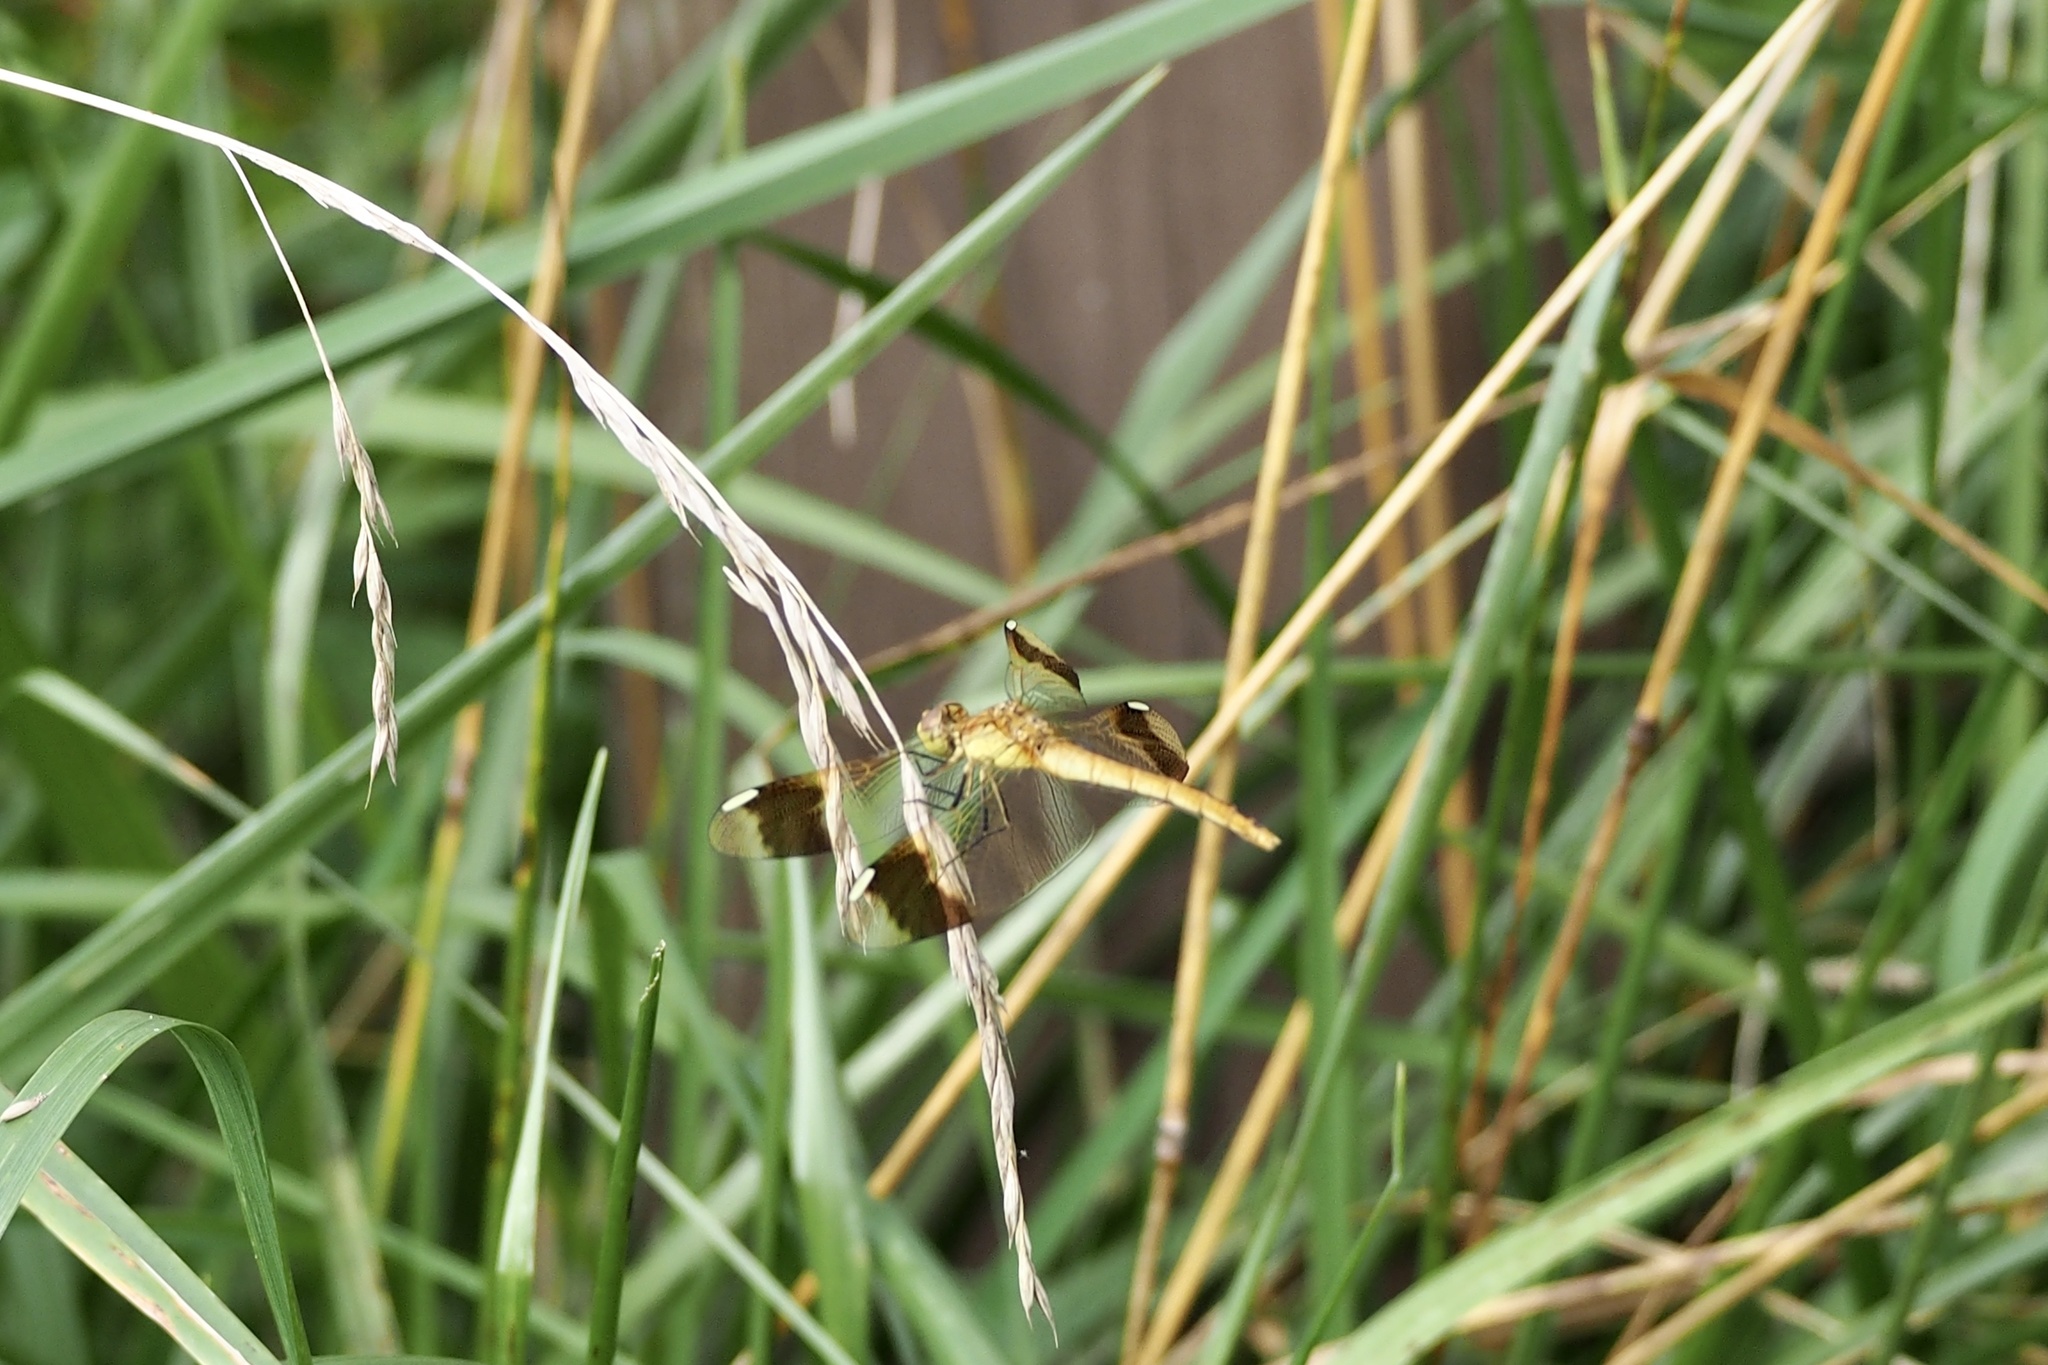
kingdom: Animalia
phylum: Arthropoda
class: Insecta
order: Odonata
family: Libellulidae
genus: Sympetrum
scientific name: Sympetrum pedemontanum
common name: Banded darter
